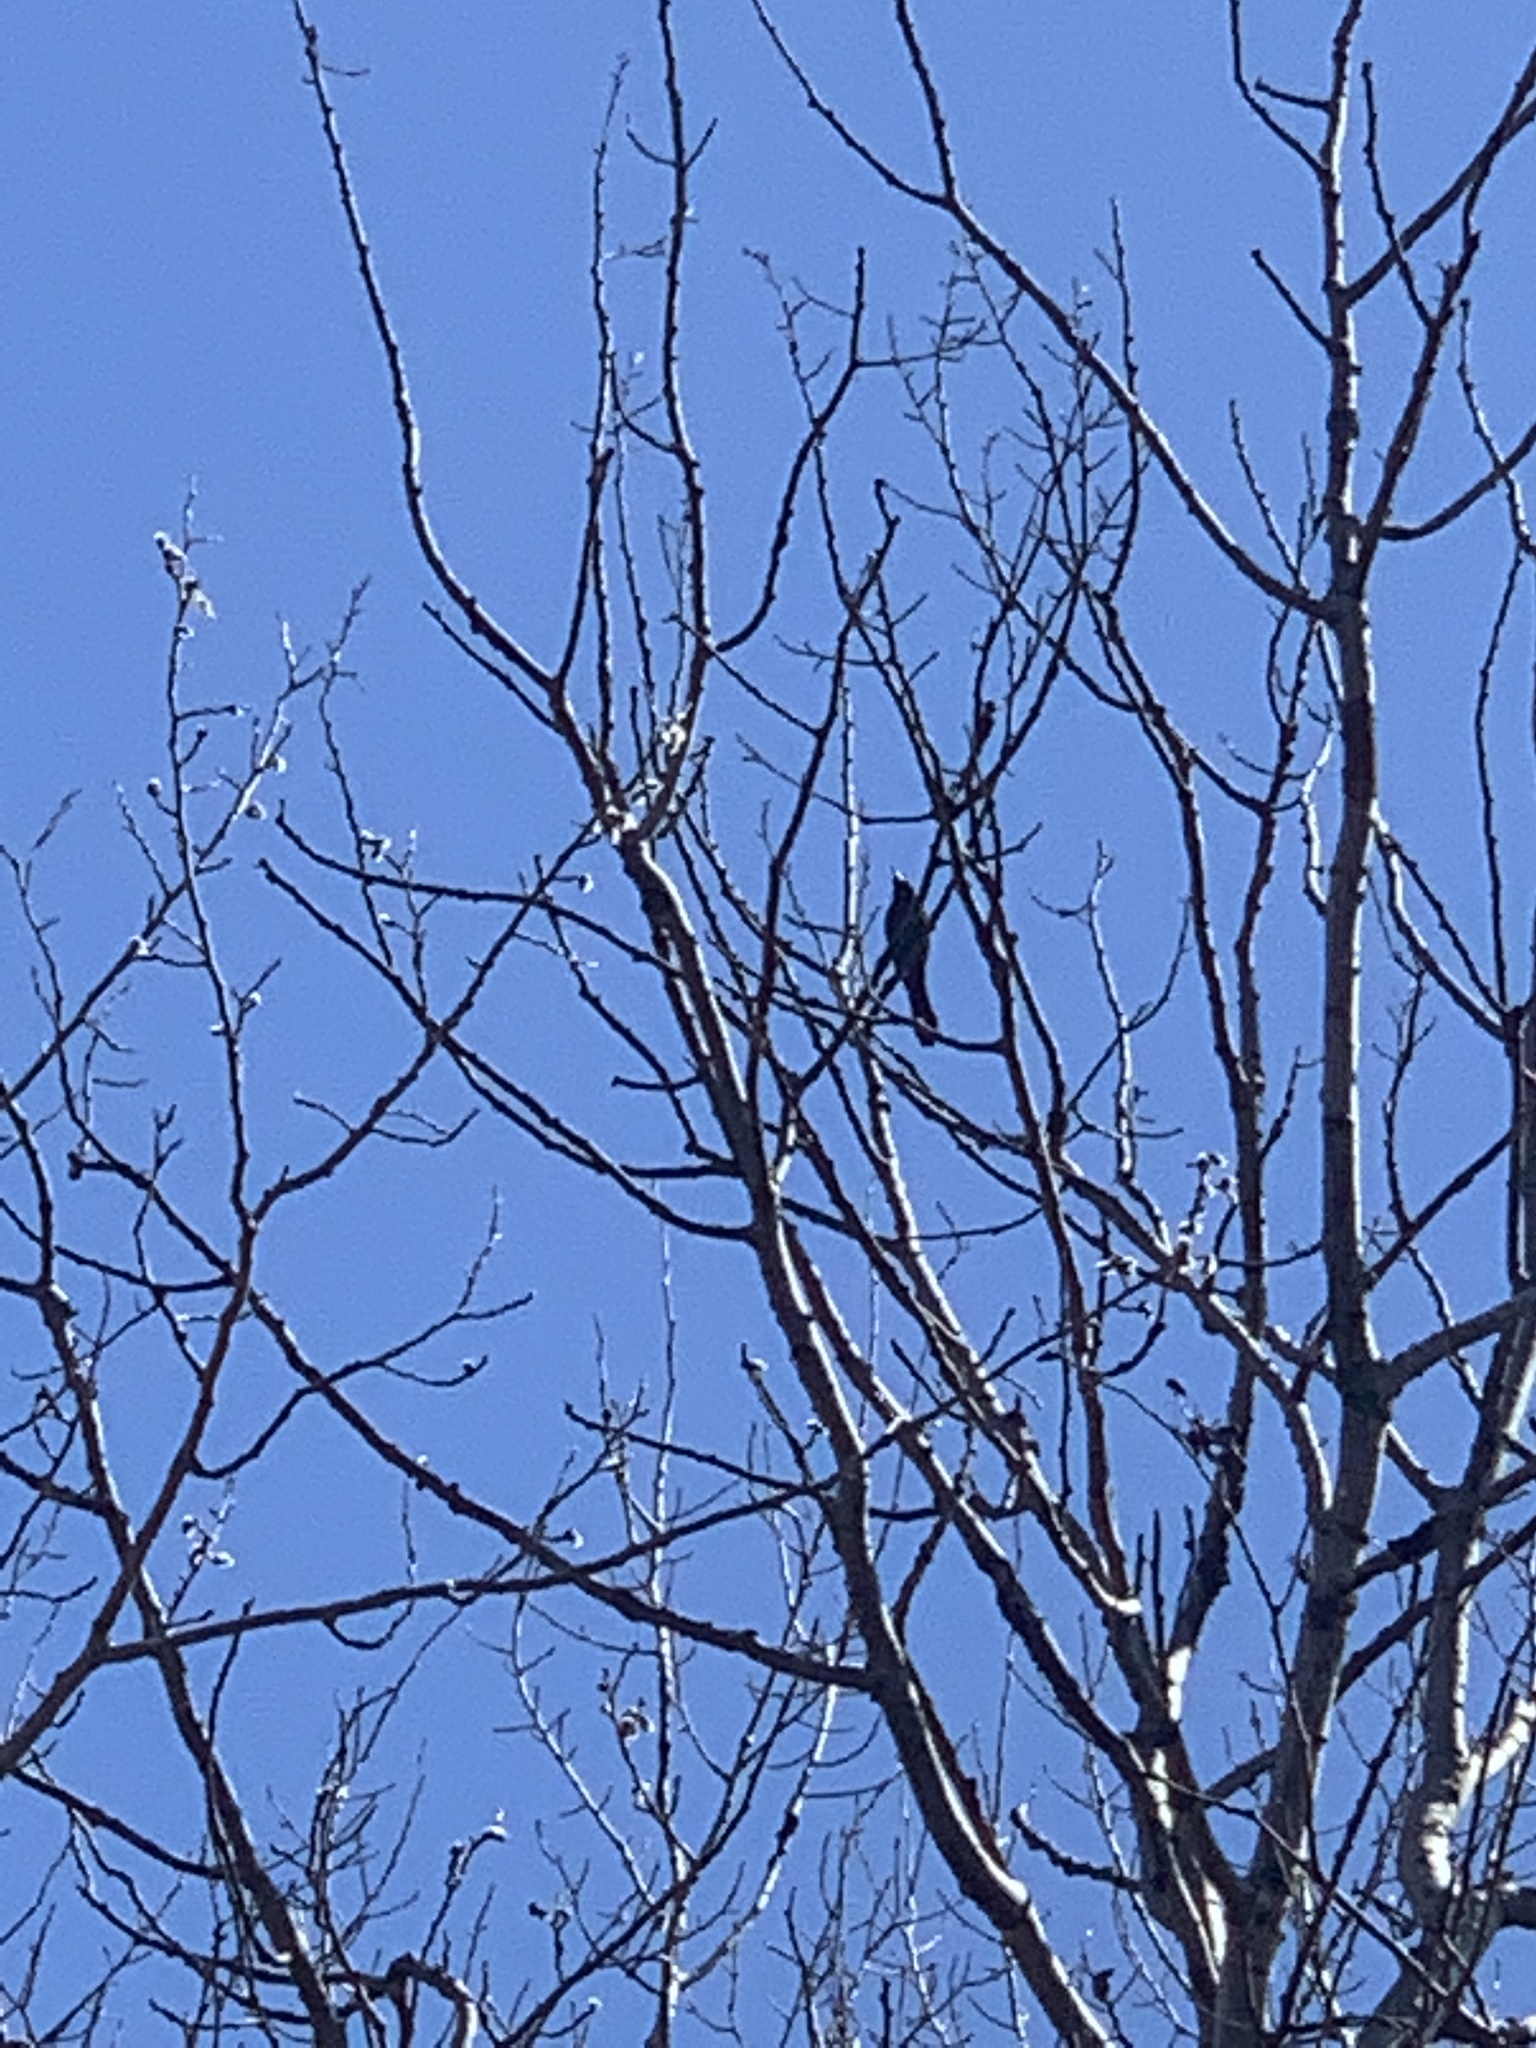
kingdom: Animalia
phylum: Chordata
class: Aves
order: Passeriformes
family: Icteridae
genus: Quiscalus
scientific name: Quiscalus quiscula
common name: Common grackle
